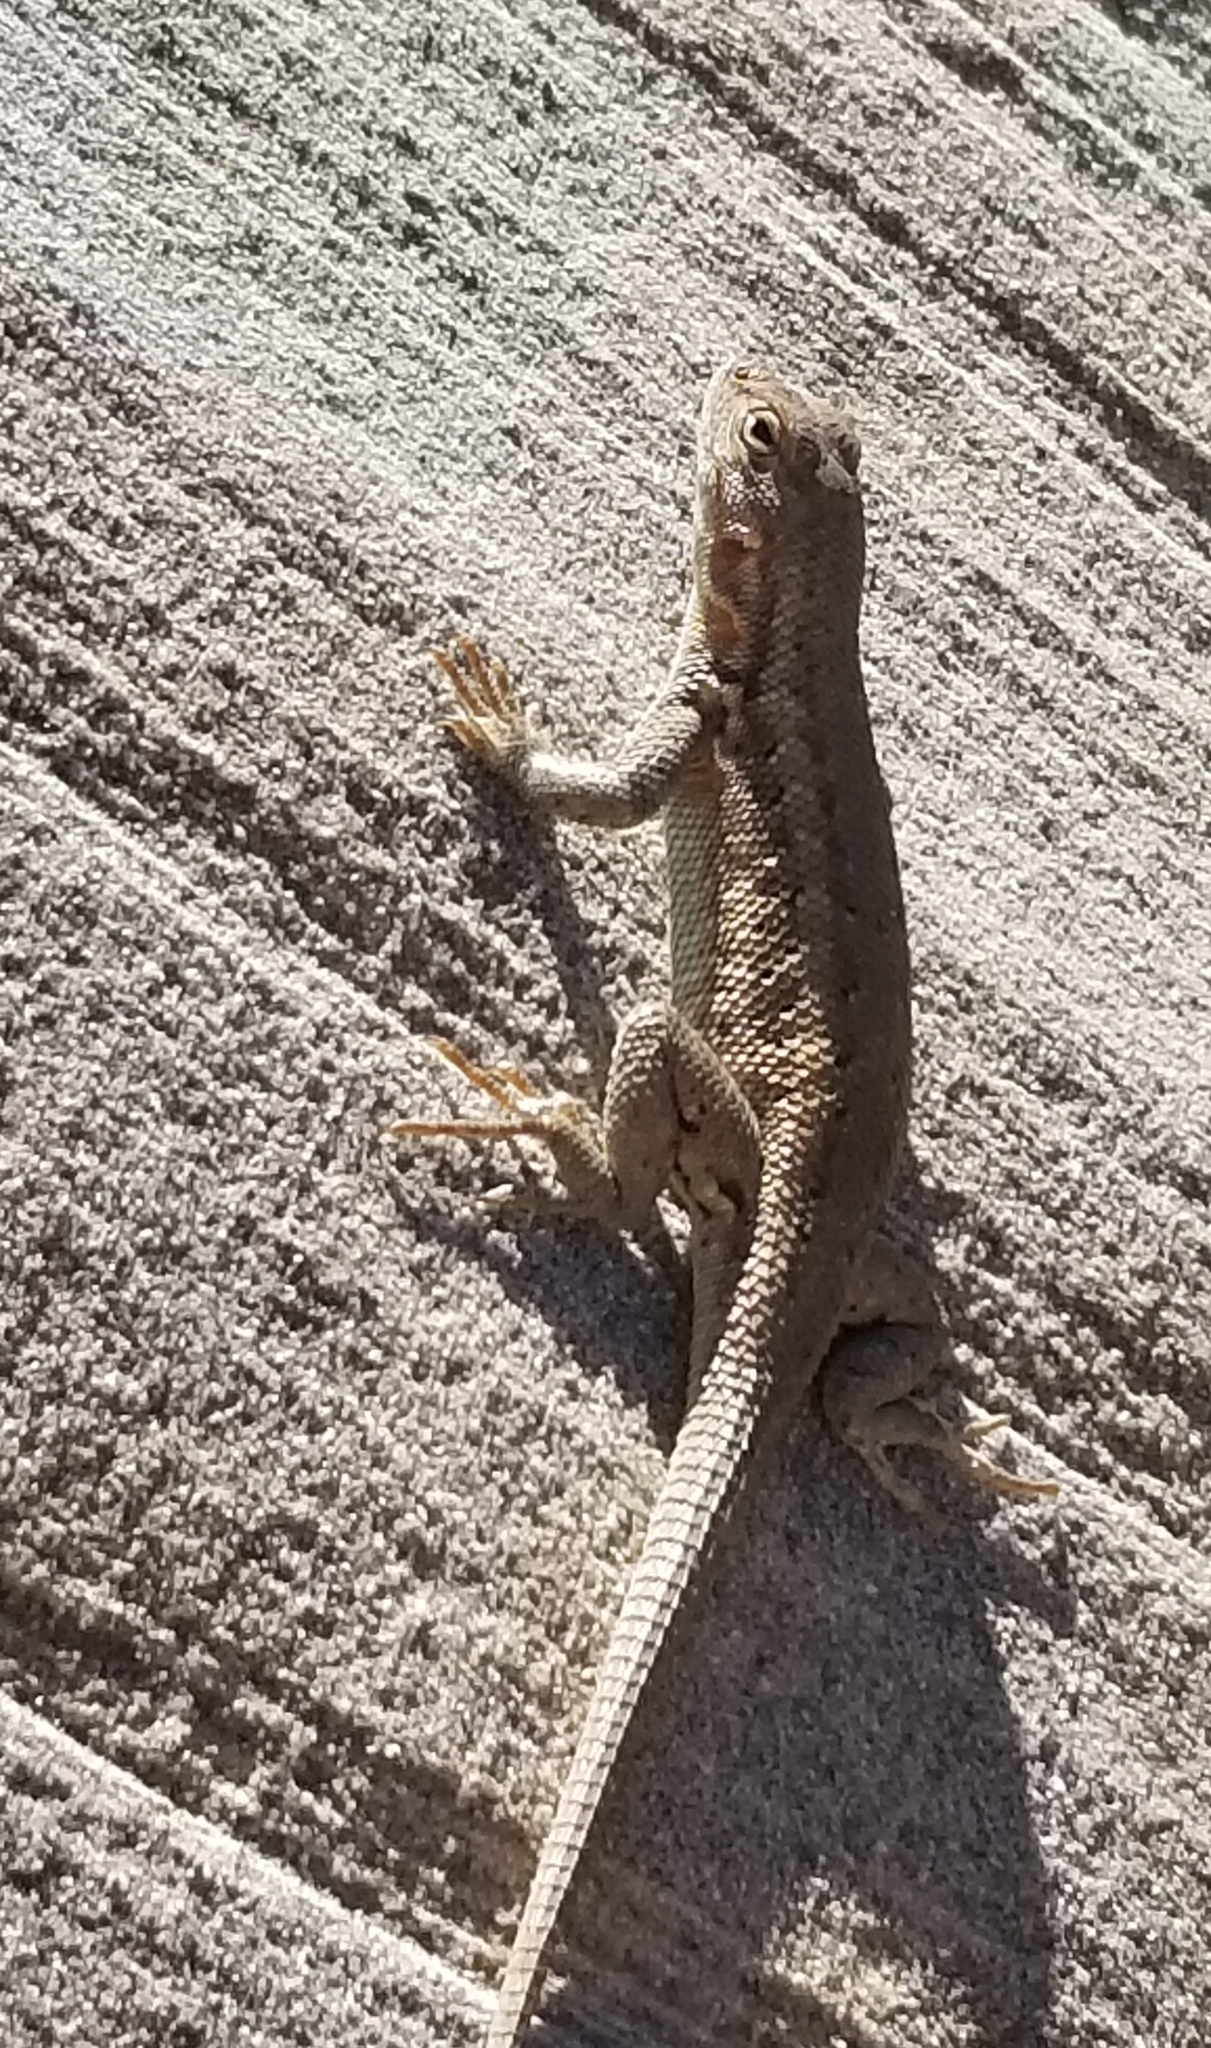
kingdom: Animalia
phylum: Chordata
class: Squamata
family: Phrynosomatidae
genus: Sceloporus
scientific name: Sceloporus graciosus
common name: Sagebrush lizard
